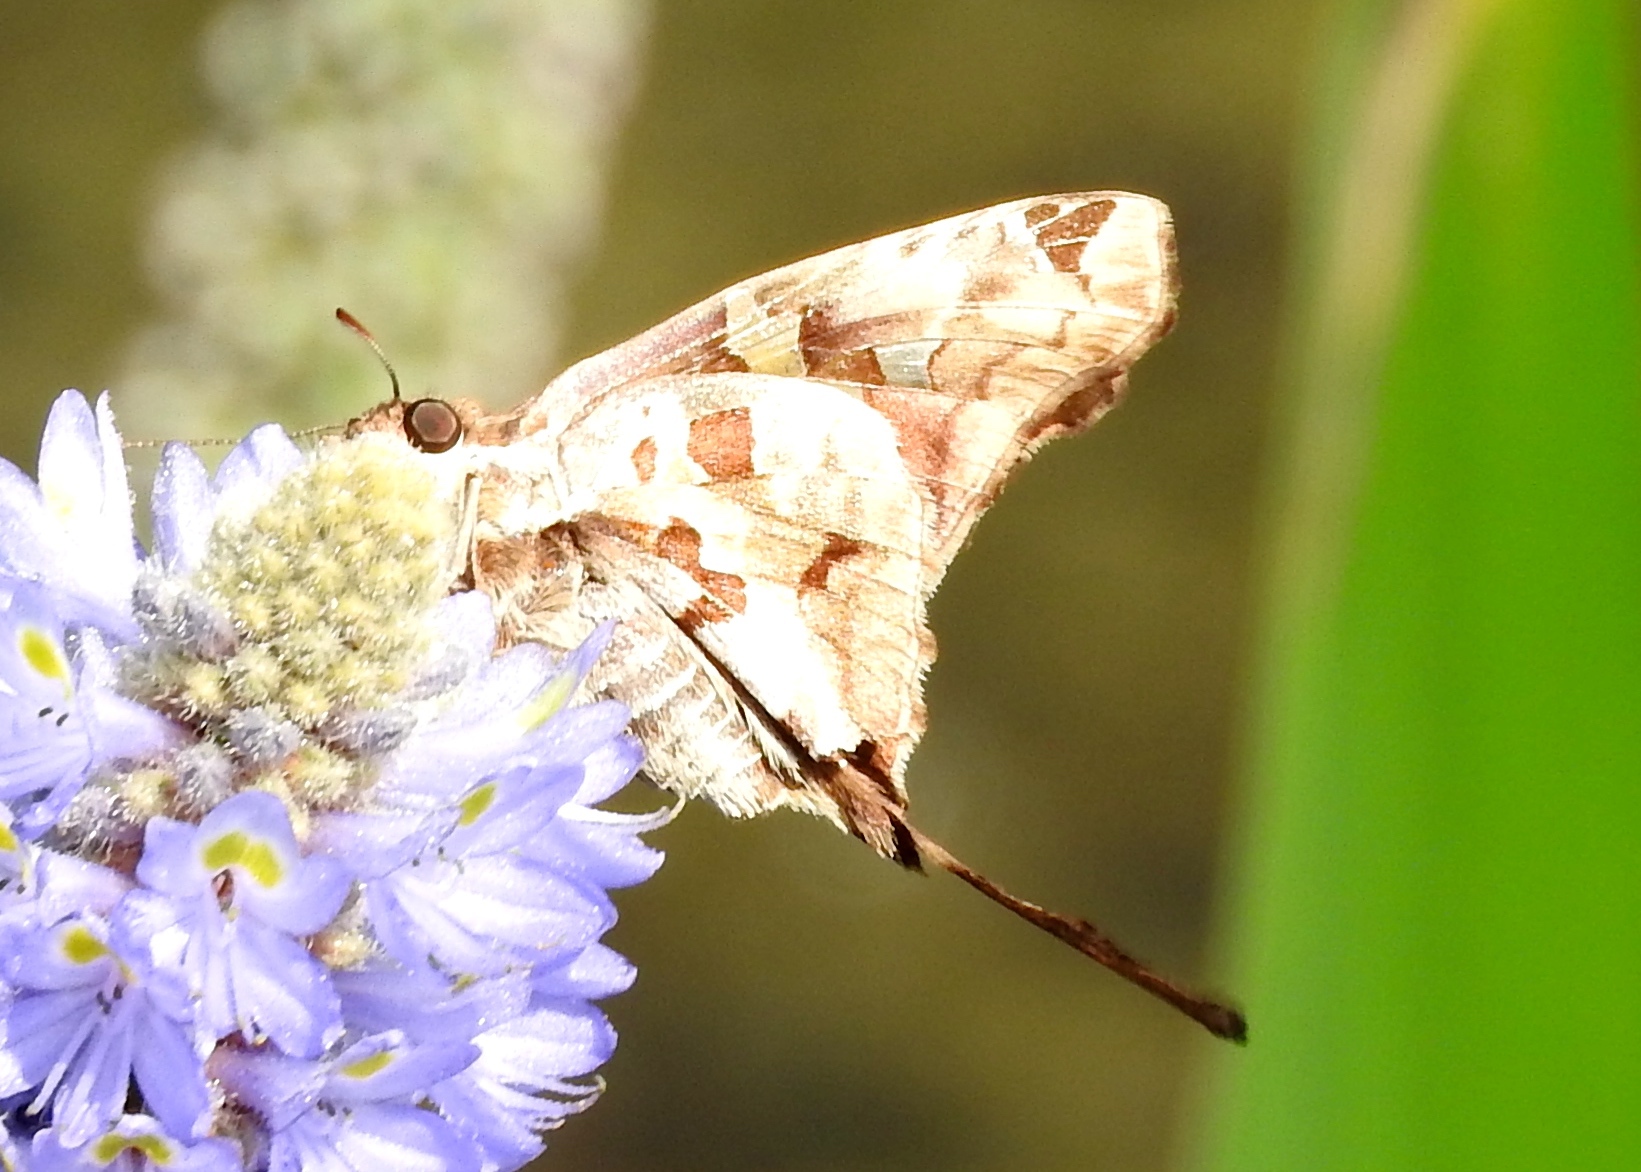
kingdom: Animalia
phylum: Arthropoda
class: Insecta
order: Lepidoptera
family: Hesperiidae
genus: Chioides
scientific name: Chioides zilpa
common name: Zilpa longtail
